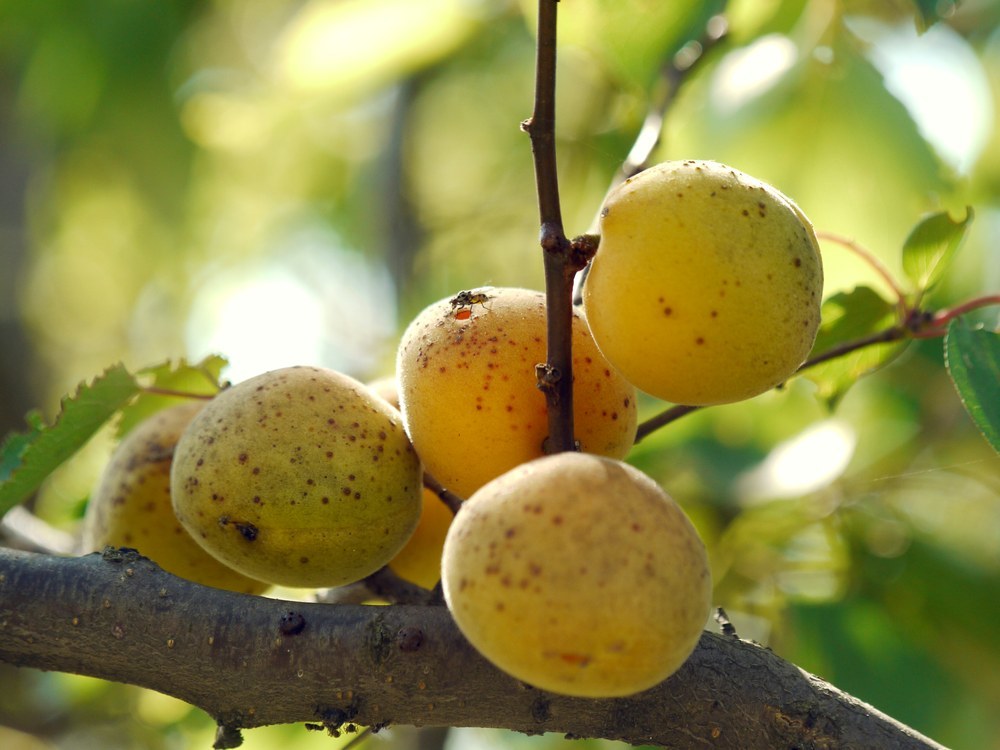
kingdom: Plantae
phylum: Tracheophyta
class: Magnoliopsida
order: Rosales
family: Rosaceae
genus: Prunus
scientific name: Prunus armeniaca
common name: Apricot
